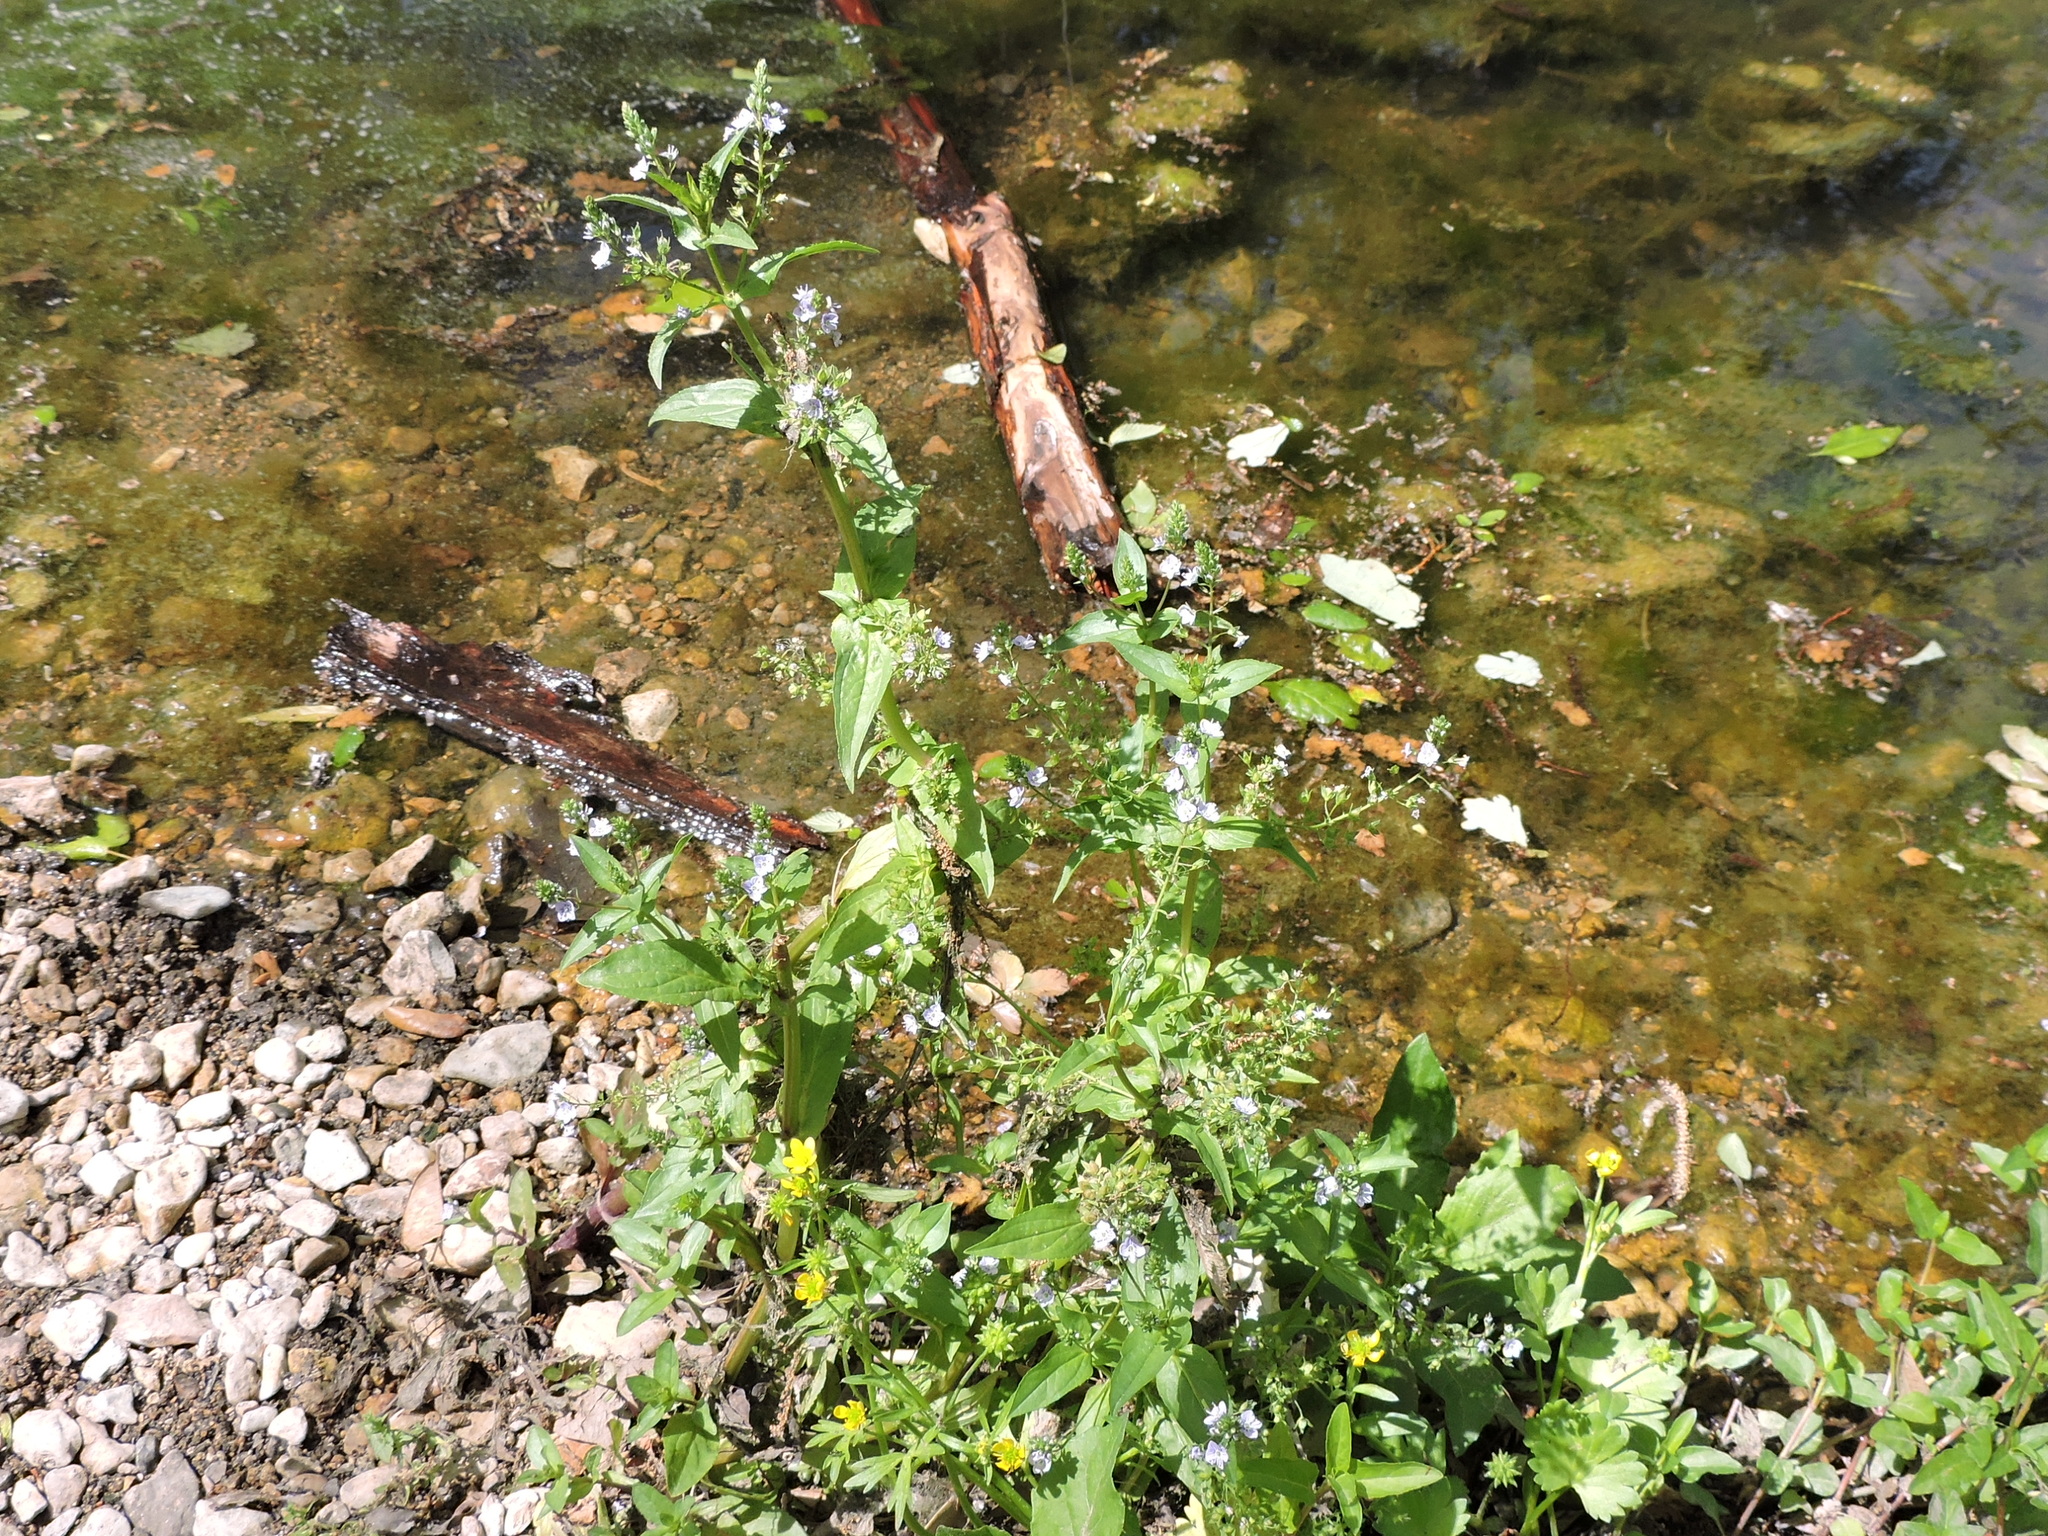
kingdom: Plantae
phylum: Tracheophyta
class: Magnoliopsida
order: Lamiales
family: Plantaginaceae
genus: Veronica
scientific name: Veronica anagallis-aquatica
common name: Water speedwell
